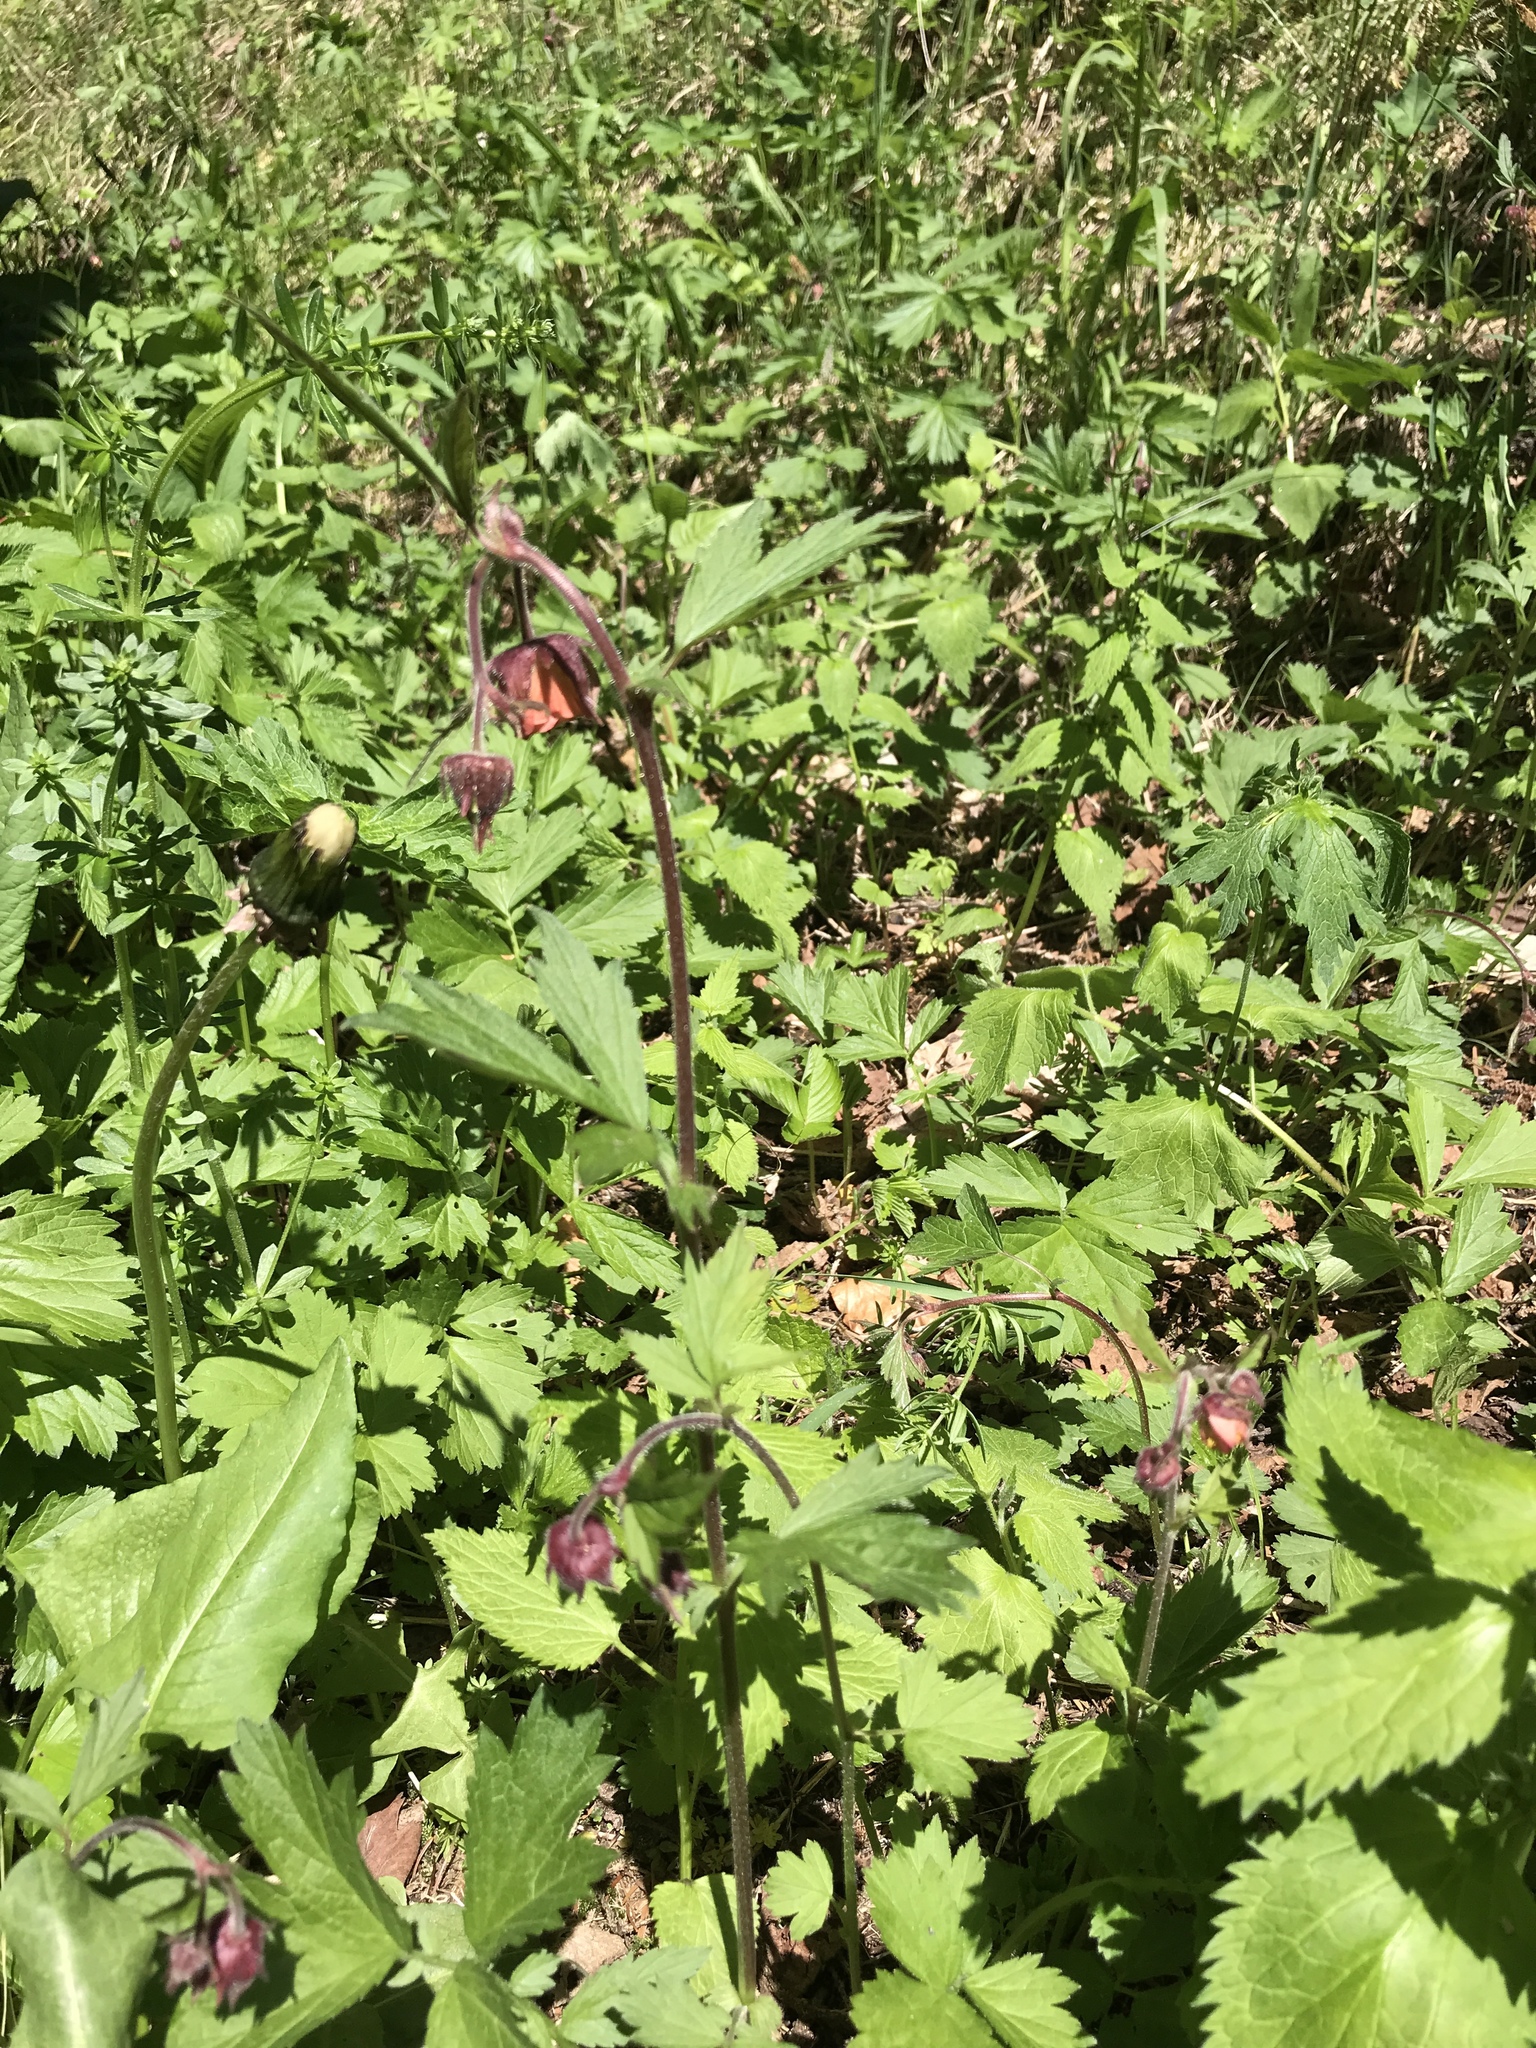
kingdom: Plantae
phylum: Tracheophyta
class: Magnoliopsida
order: Rosales
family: Rosaceae
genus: Geum
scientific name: Geum rivale
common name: Water avens
